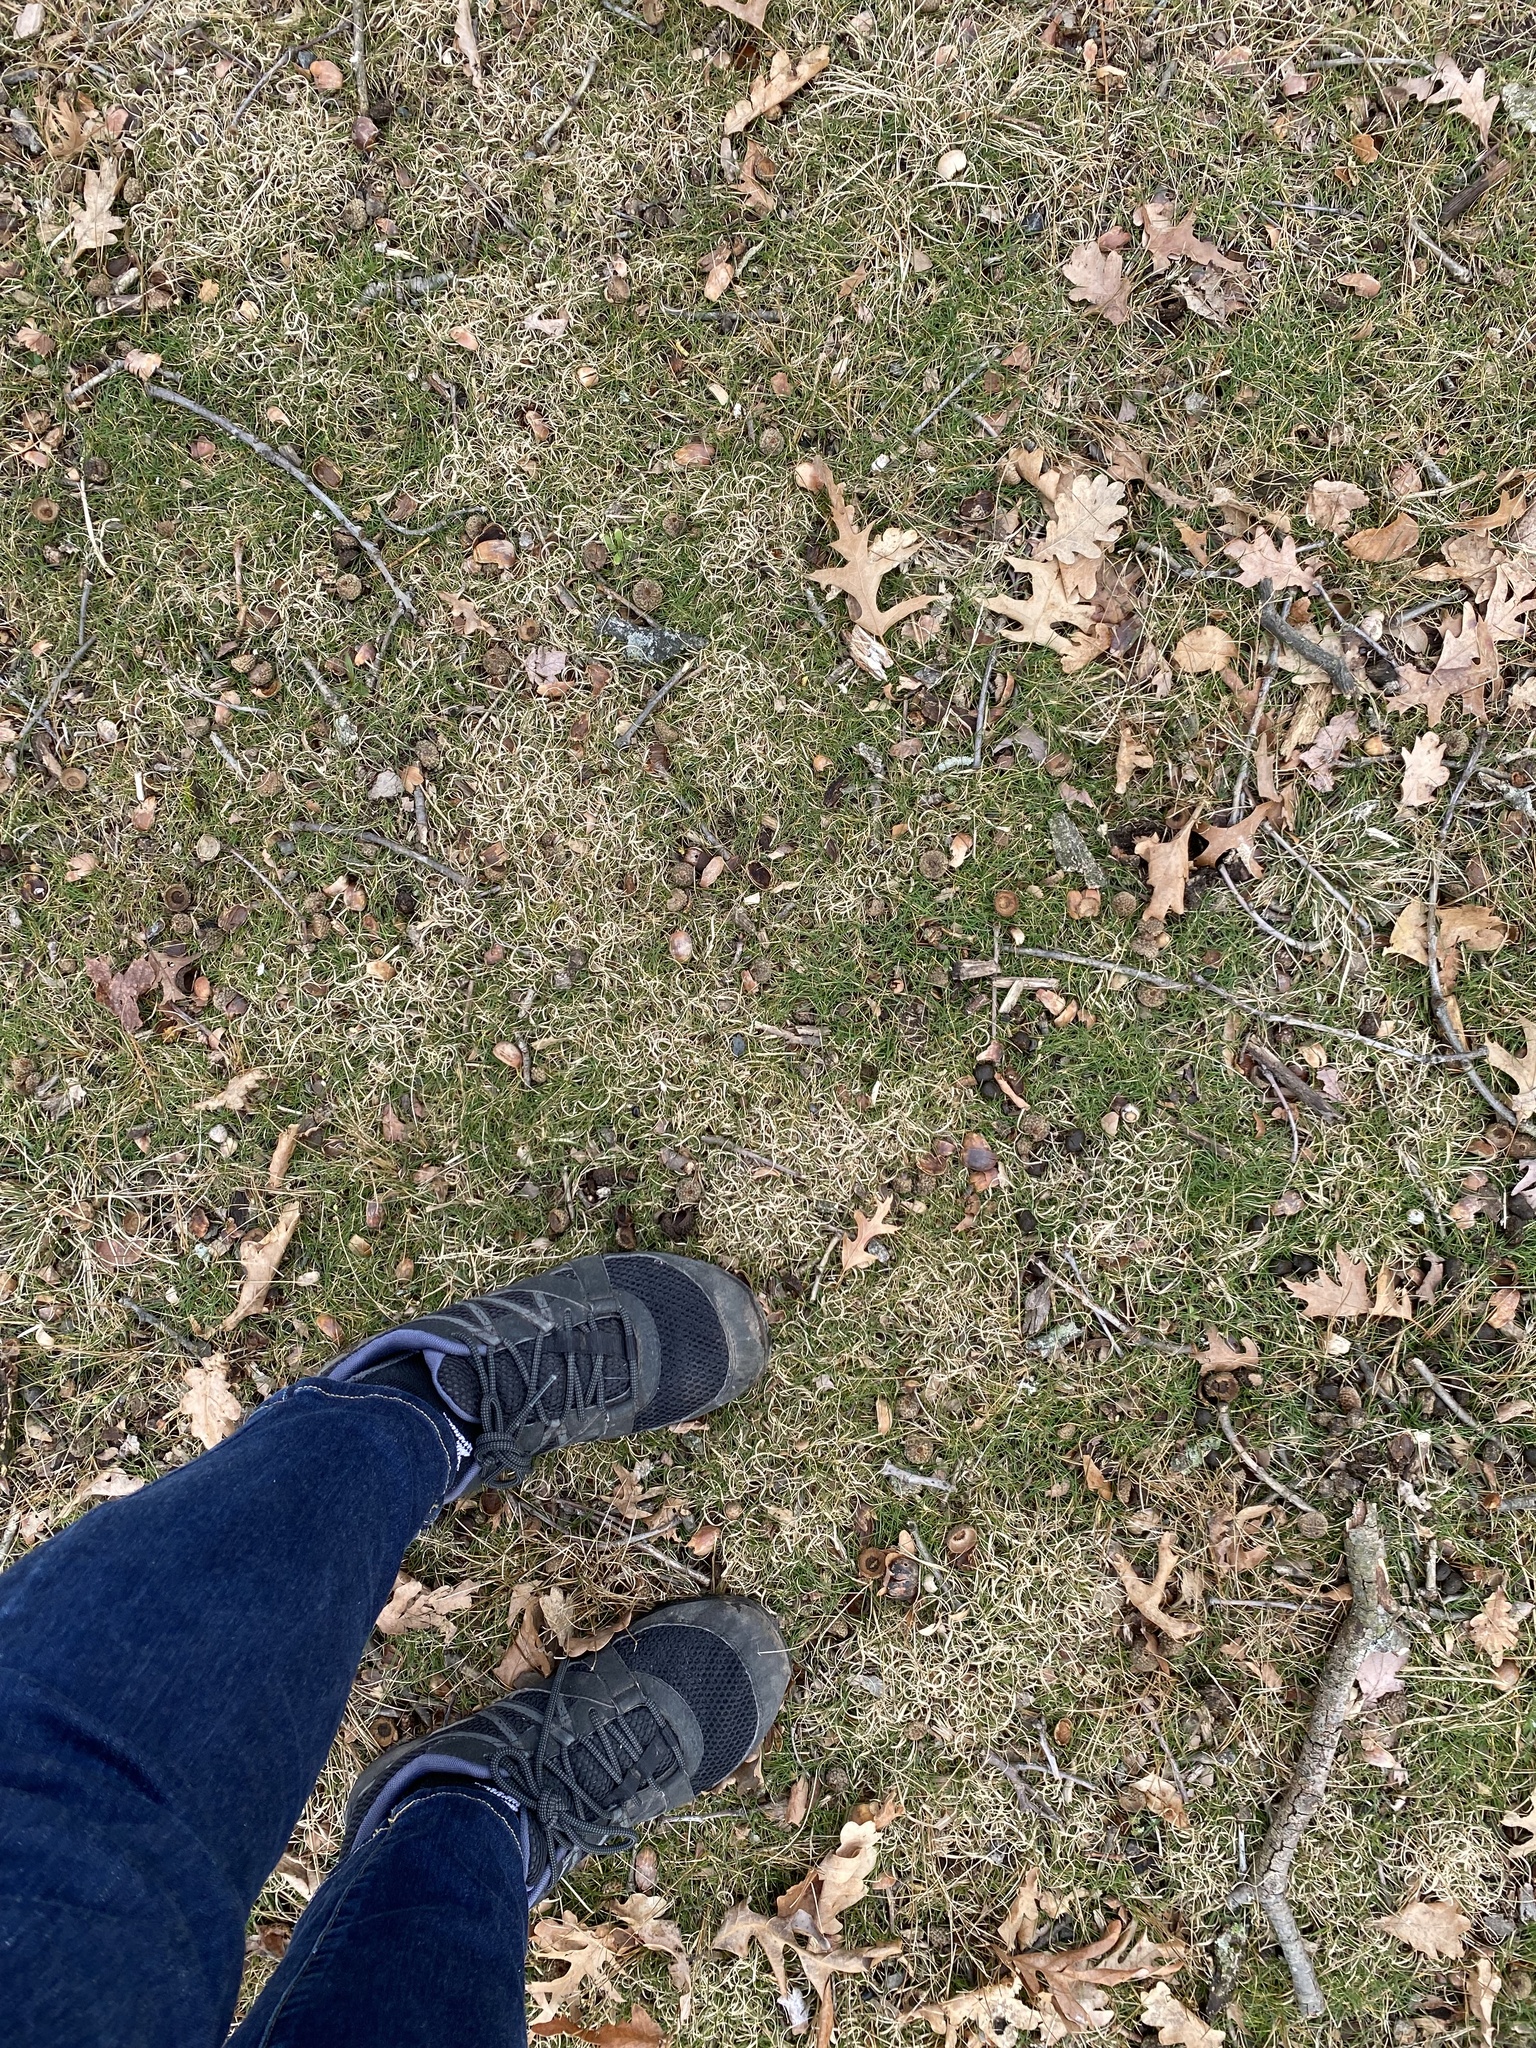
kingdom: Plantae
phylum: Tracheophyta
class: Liliopsida
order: Poales
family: Poaceae
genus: Danthonia
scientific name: Danthonia spicata
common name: Common wild oatgrass
